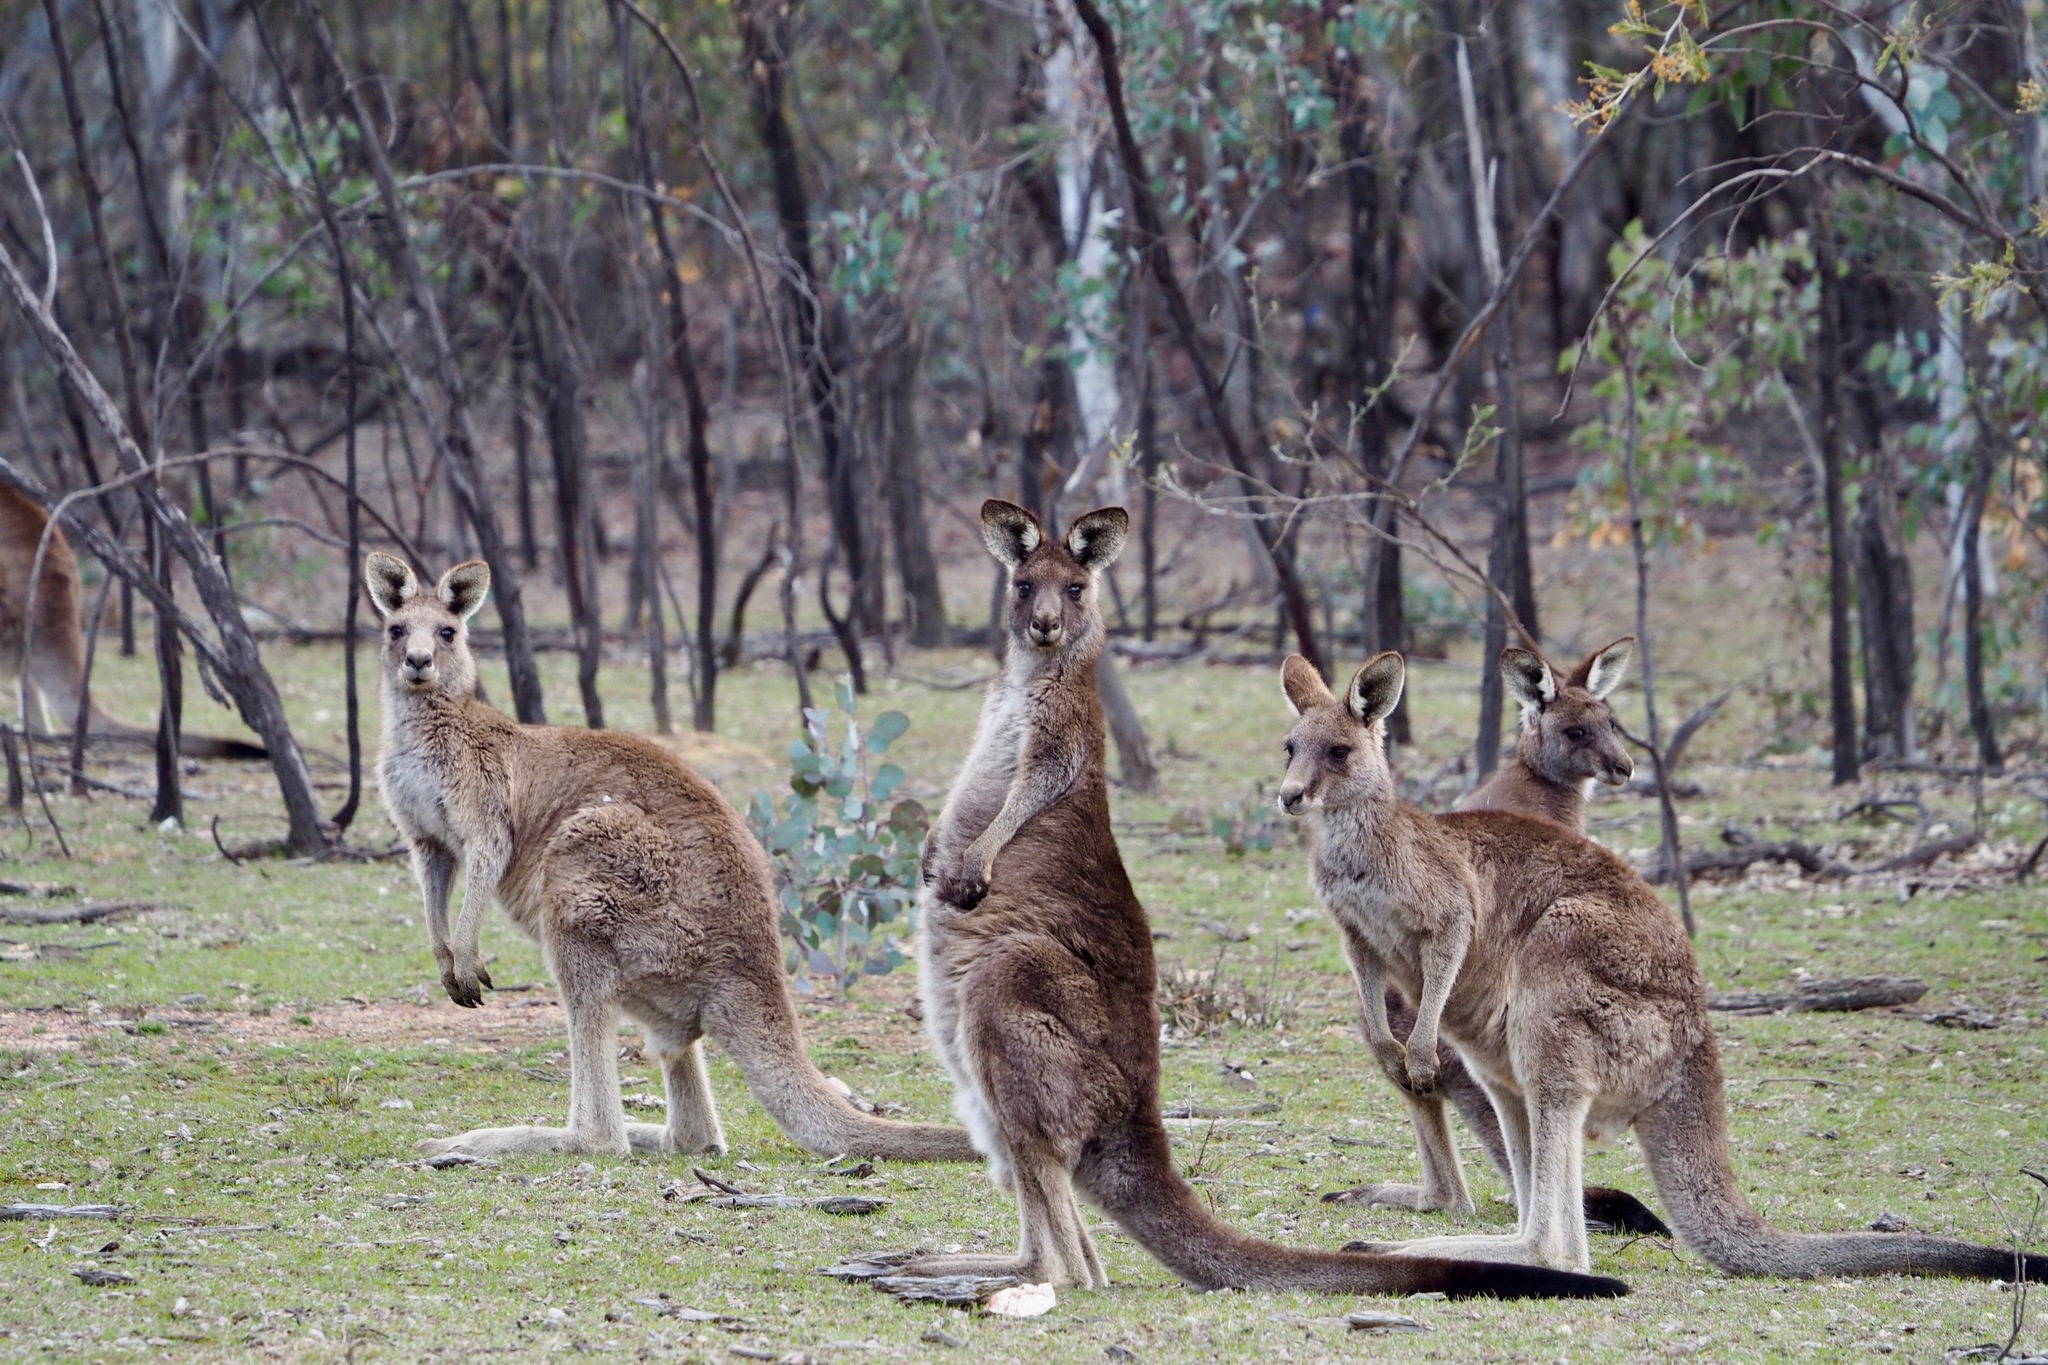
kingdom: Animalia
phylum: Chordata
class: Mammalia
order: Diprotodontia
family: Macropodidae
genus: Macropus
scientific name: Macropus giganteus
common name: Eastern grey kangaroo
